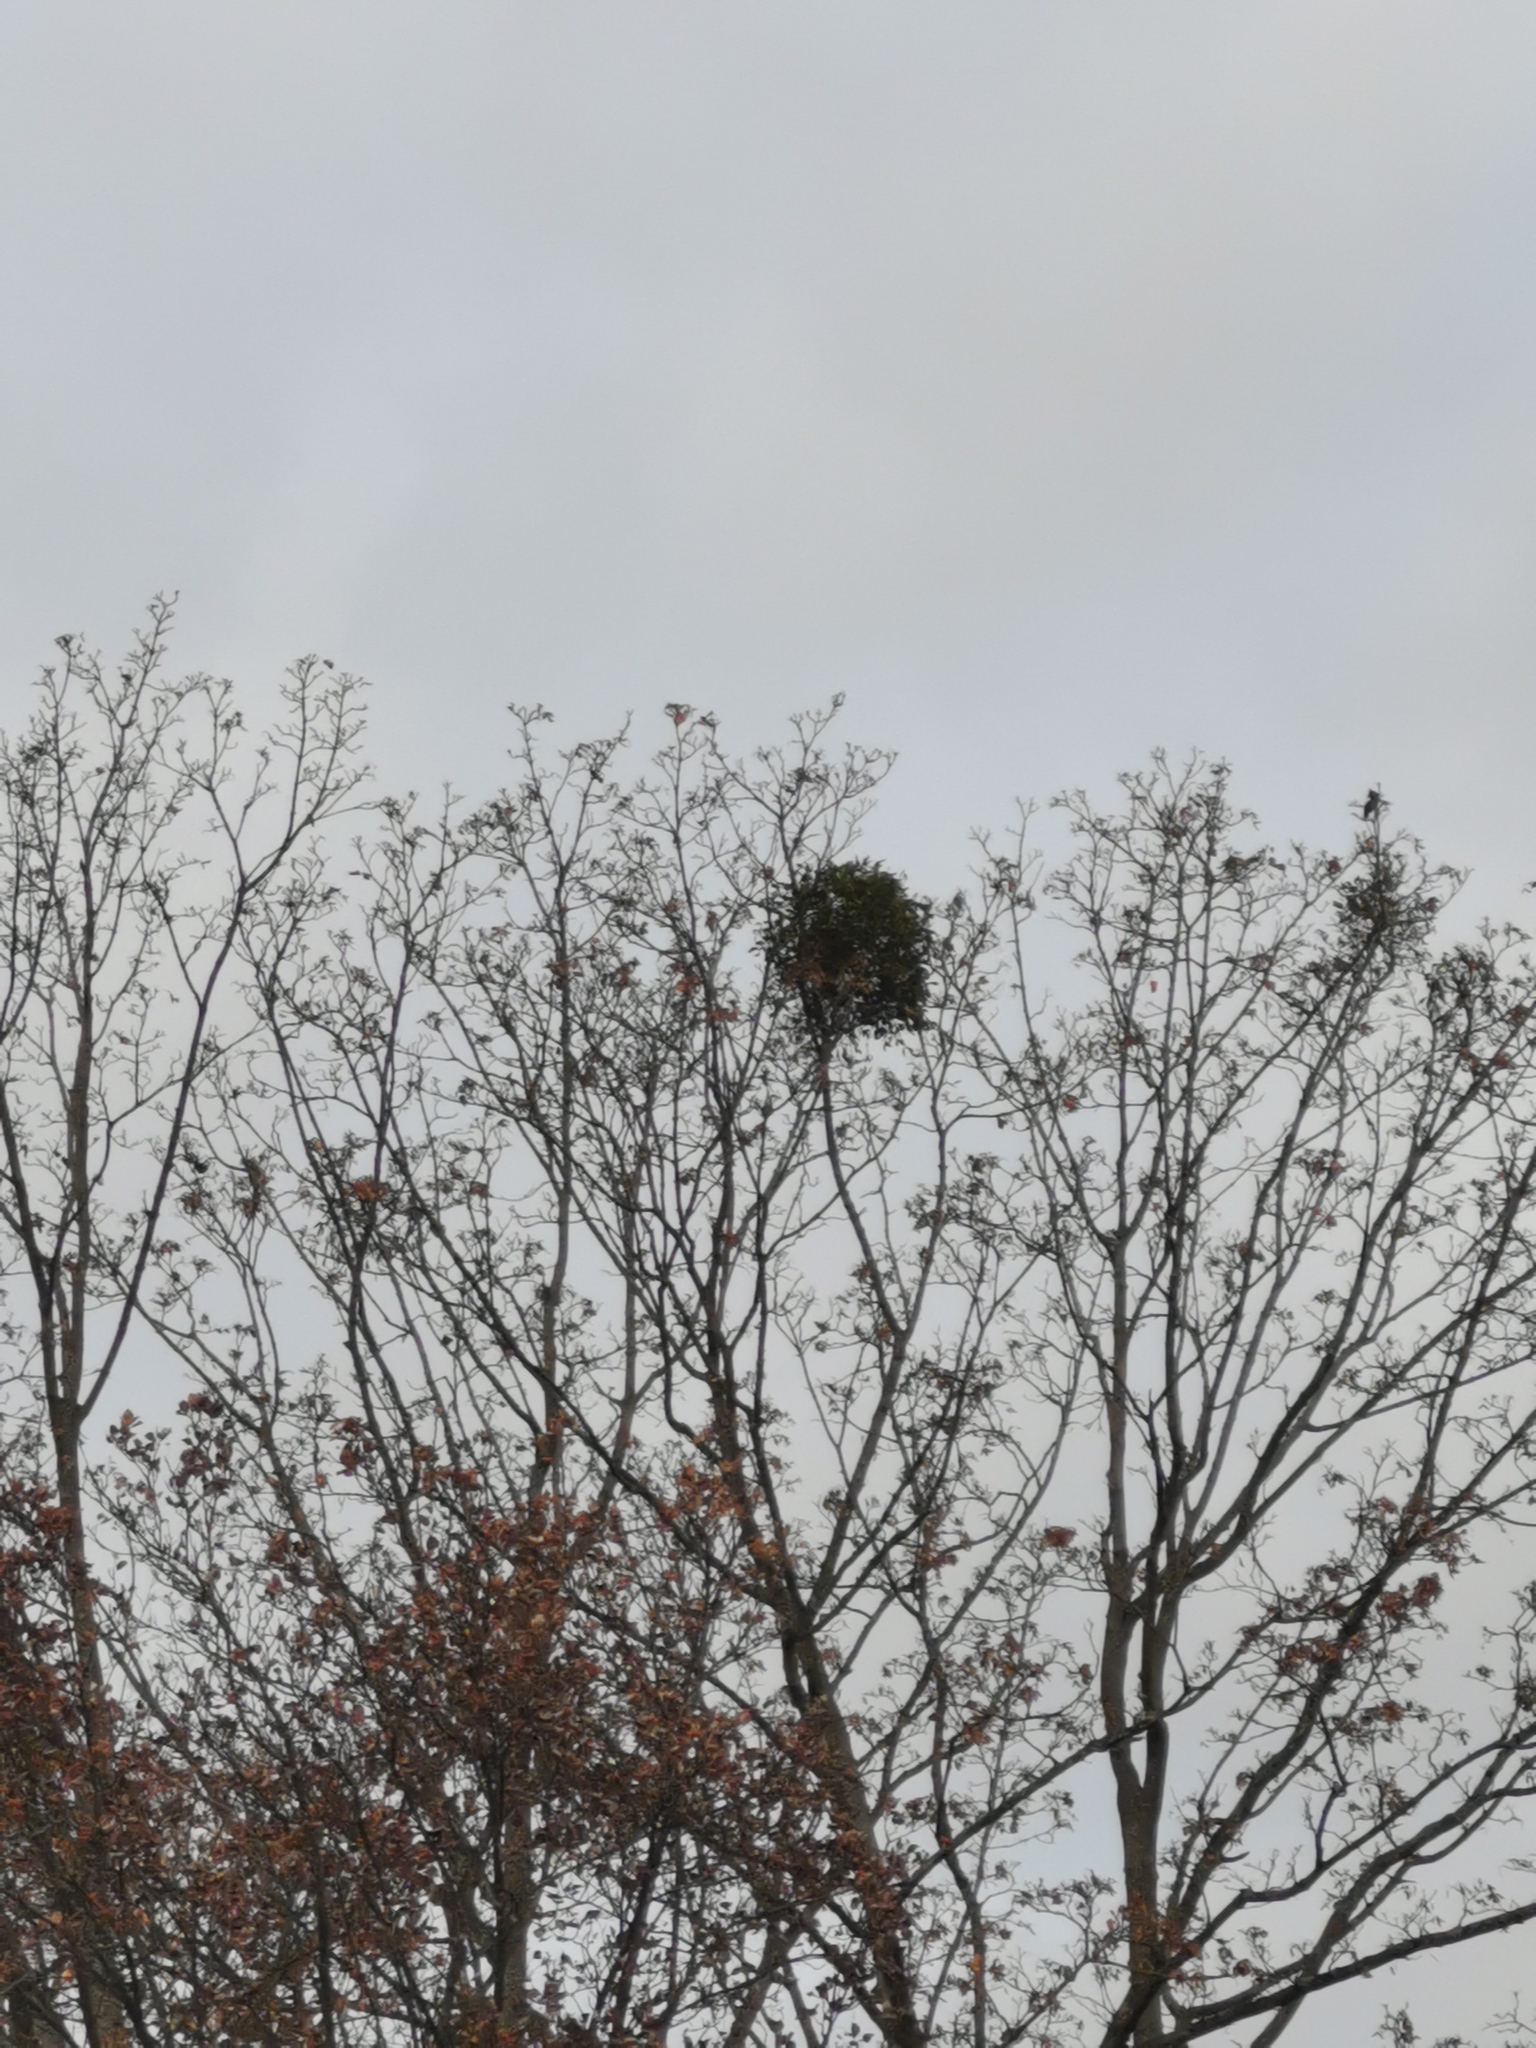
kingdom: Plantae
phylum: Tracheophyta
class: Magnoliopsida
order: Santalales
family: Viscaceae
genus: Viscum
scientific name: Viscum album
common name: Mistletoe
